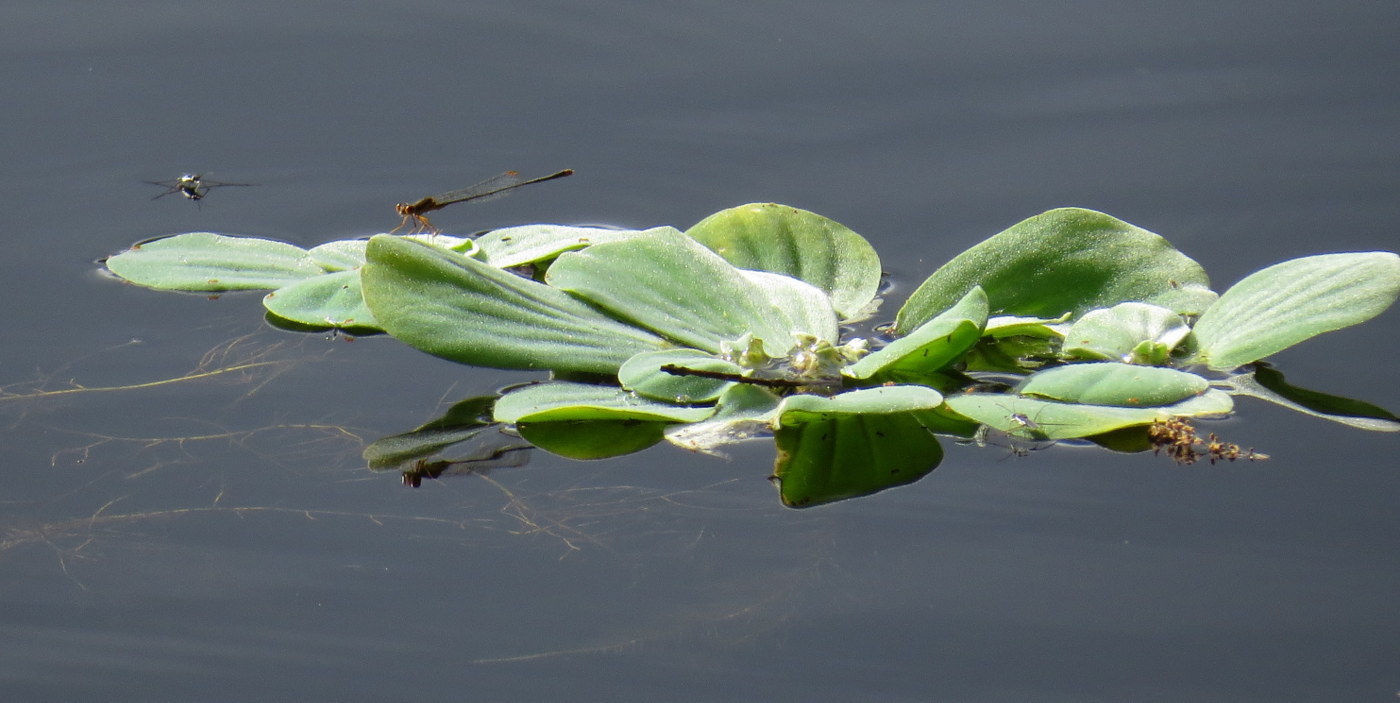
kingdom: Plantae
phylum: Tracheophyta
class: Liliopsida
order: Alismatales
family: Araceae
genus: Pistia
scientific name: Pistia stratiotes
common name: Water lettuce
